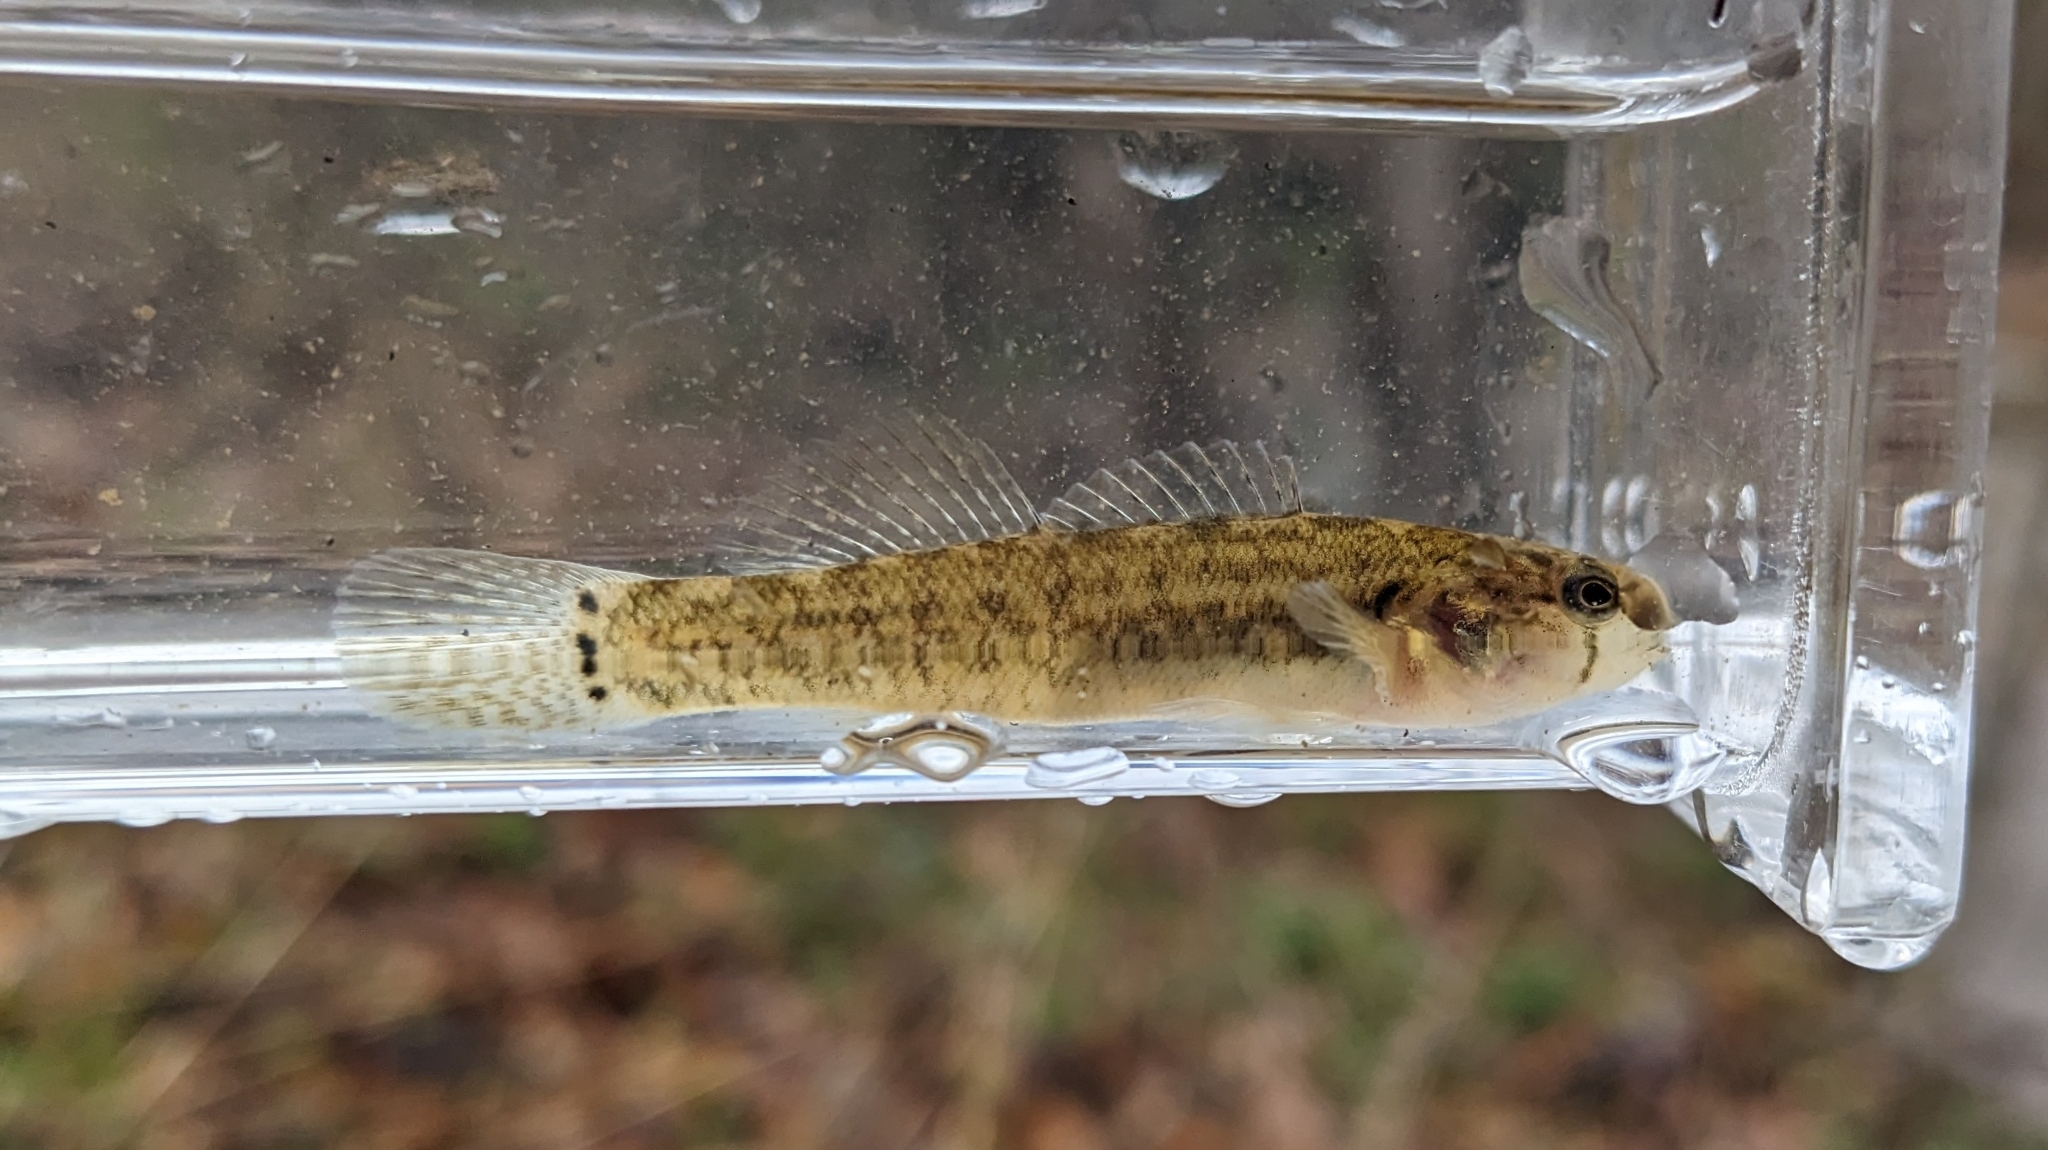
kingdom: Animalia
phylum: Chordata
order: Perciformes
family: Percidae
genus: Etheostoma
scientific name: Etheostoma crossopterum
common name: Fringed darter
